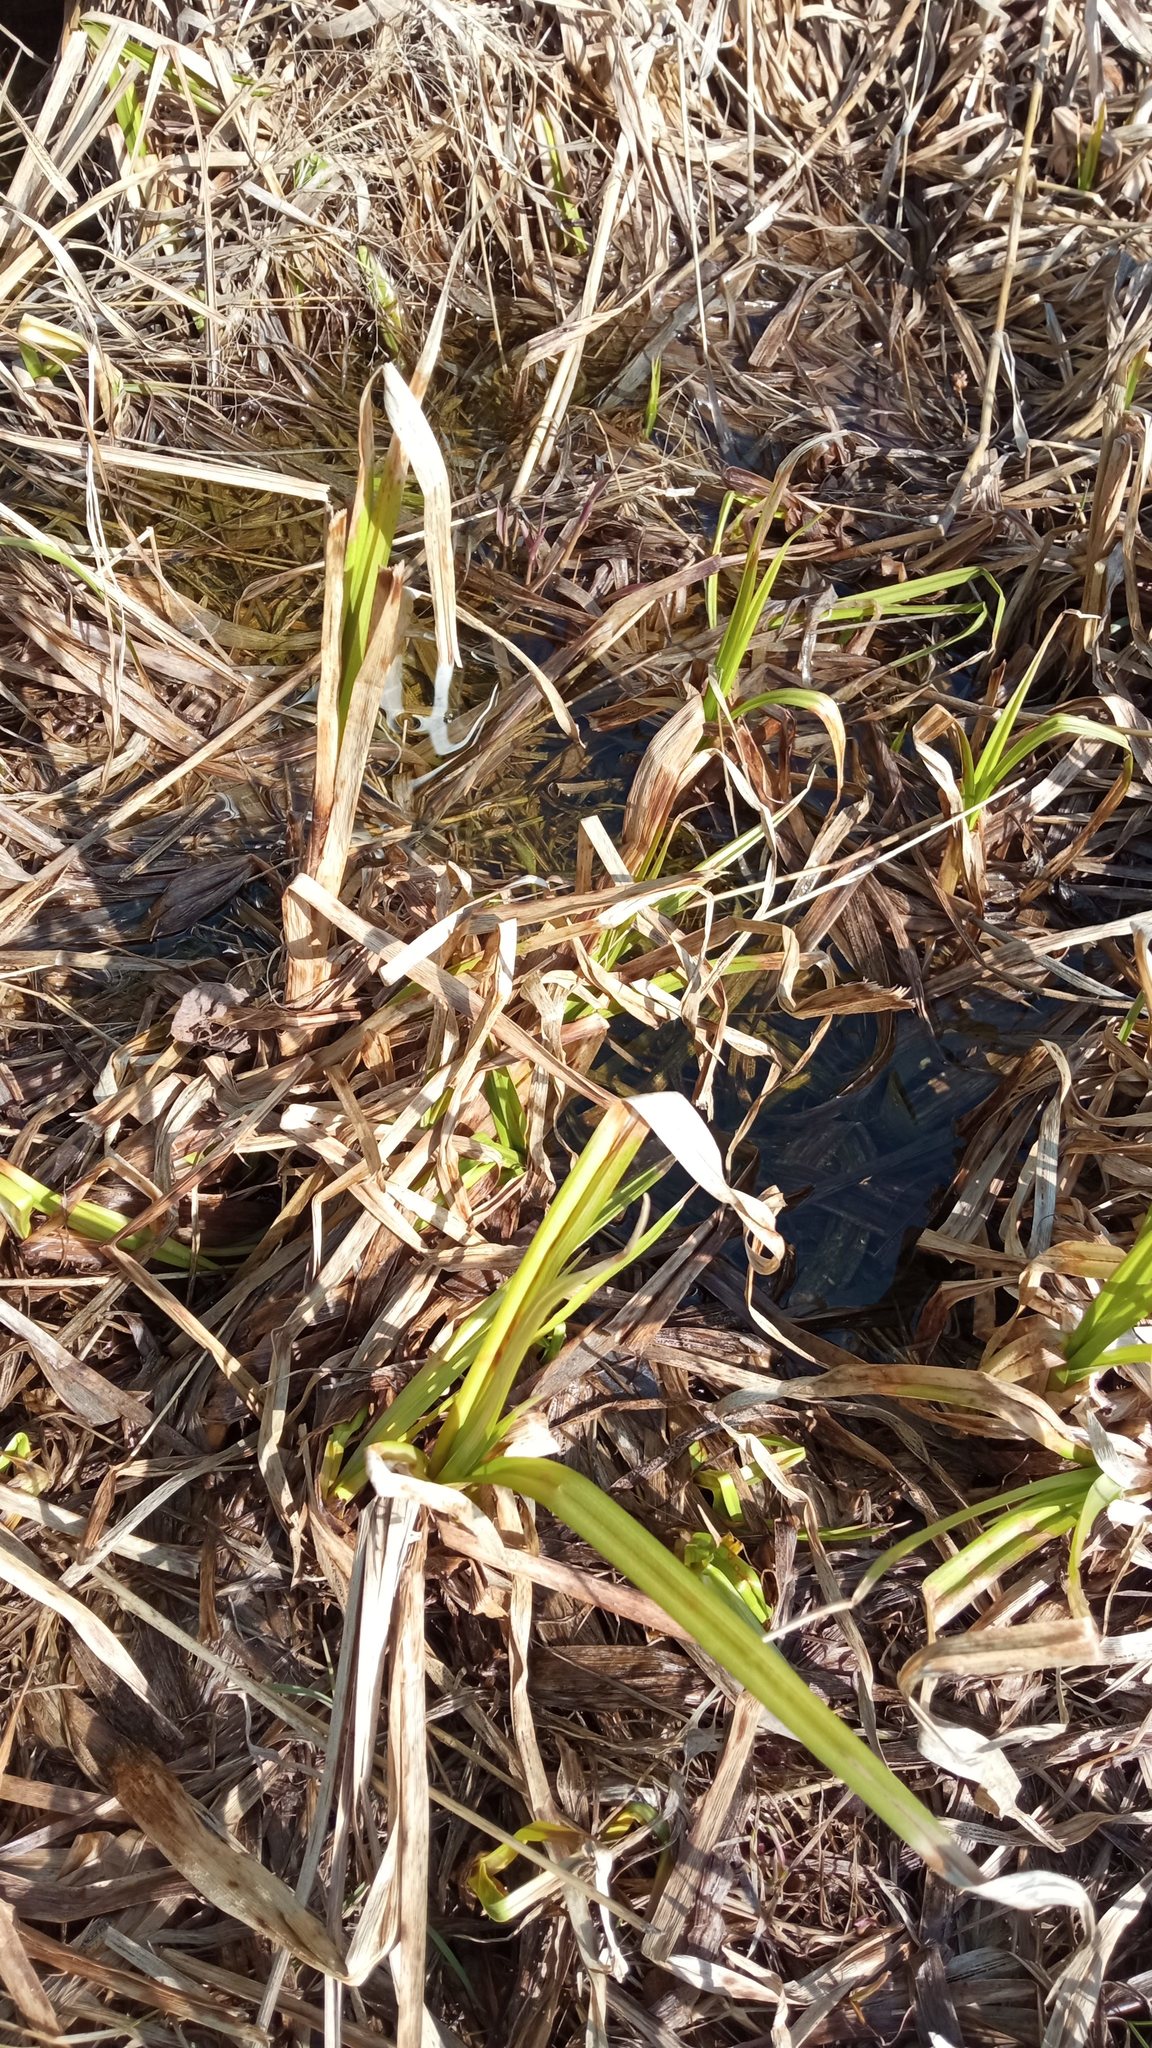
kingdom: Plantae
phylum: Tracheophyta
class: Liliopsida
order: Poales
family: Cyperaceae
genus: Scirpus
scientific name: Scirpus sylvaticus
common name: Wood club-rush
